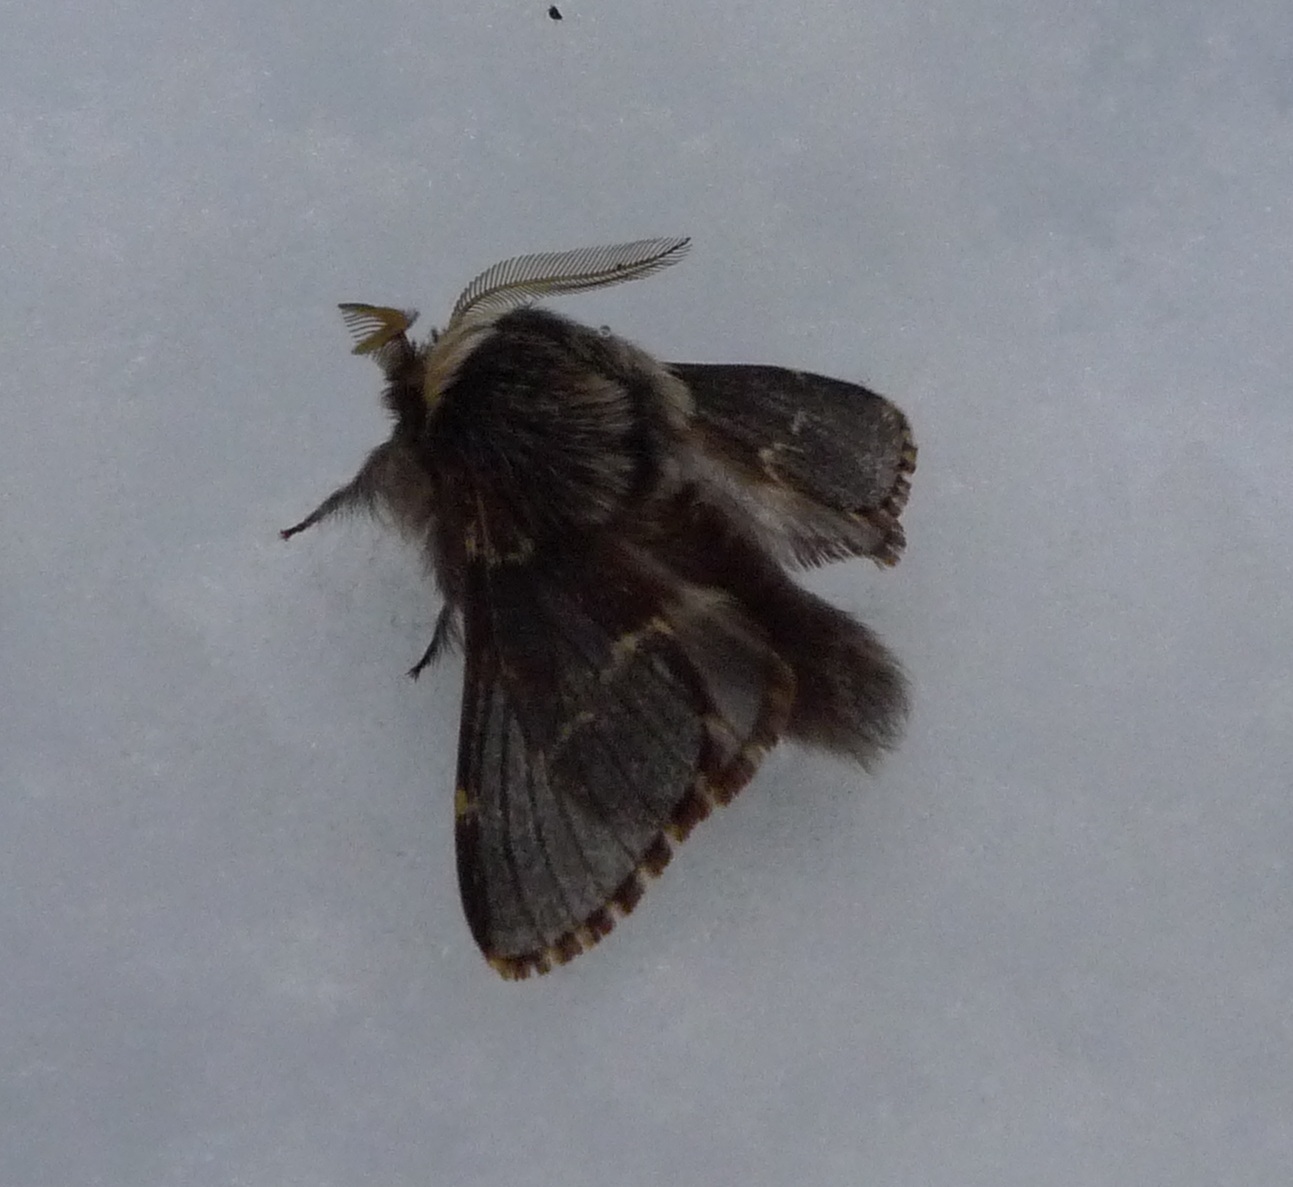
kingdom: Animalia
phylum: Arthropoda
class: Insecta
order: Lepidoptera
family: Lasiocampidae
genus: Poecilocampa
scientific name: Poecilocampa populi
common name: December moth
